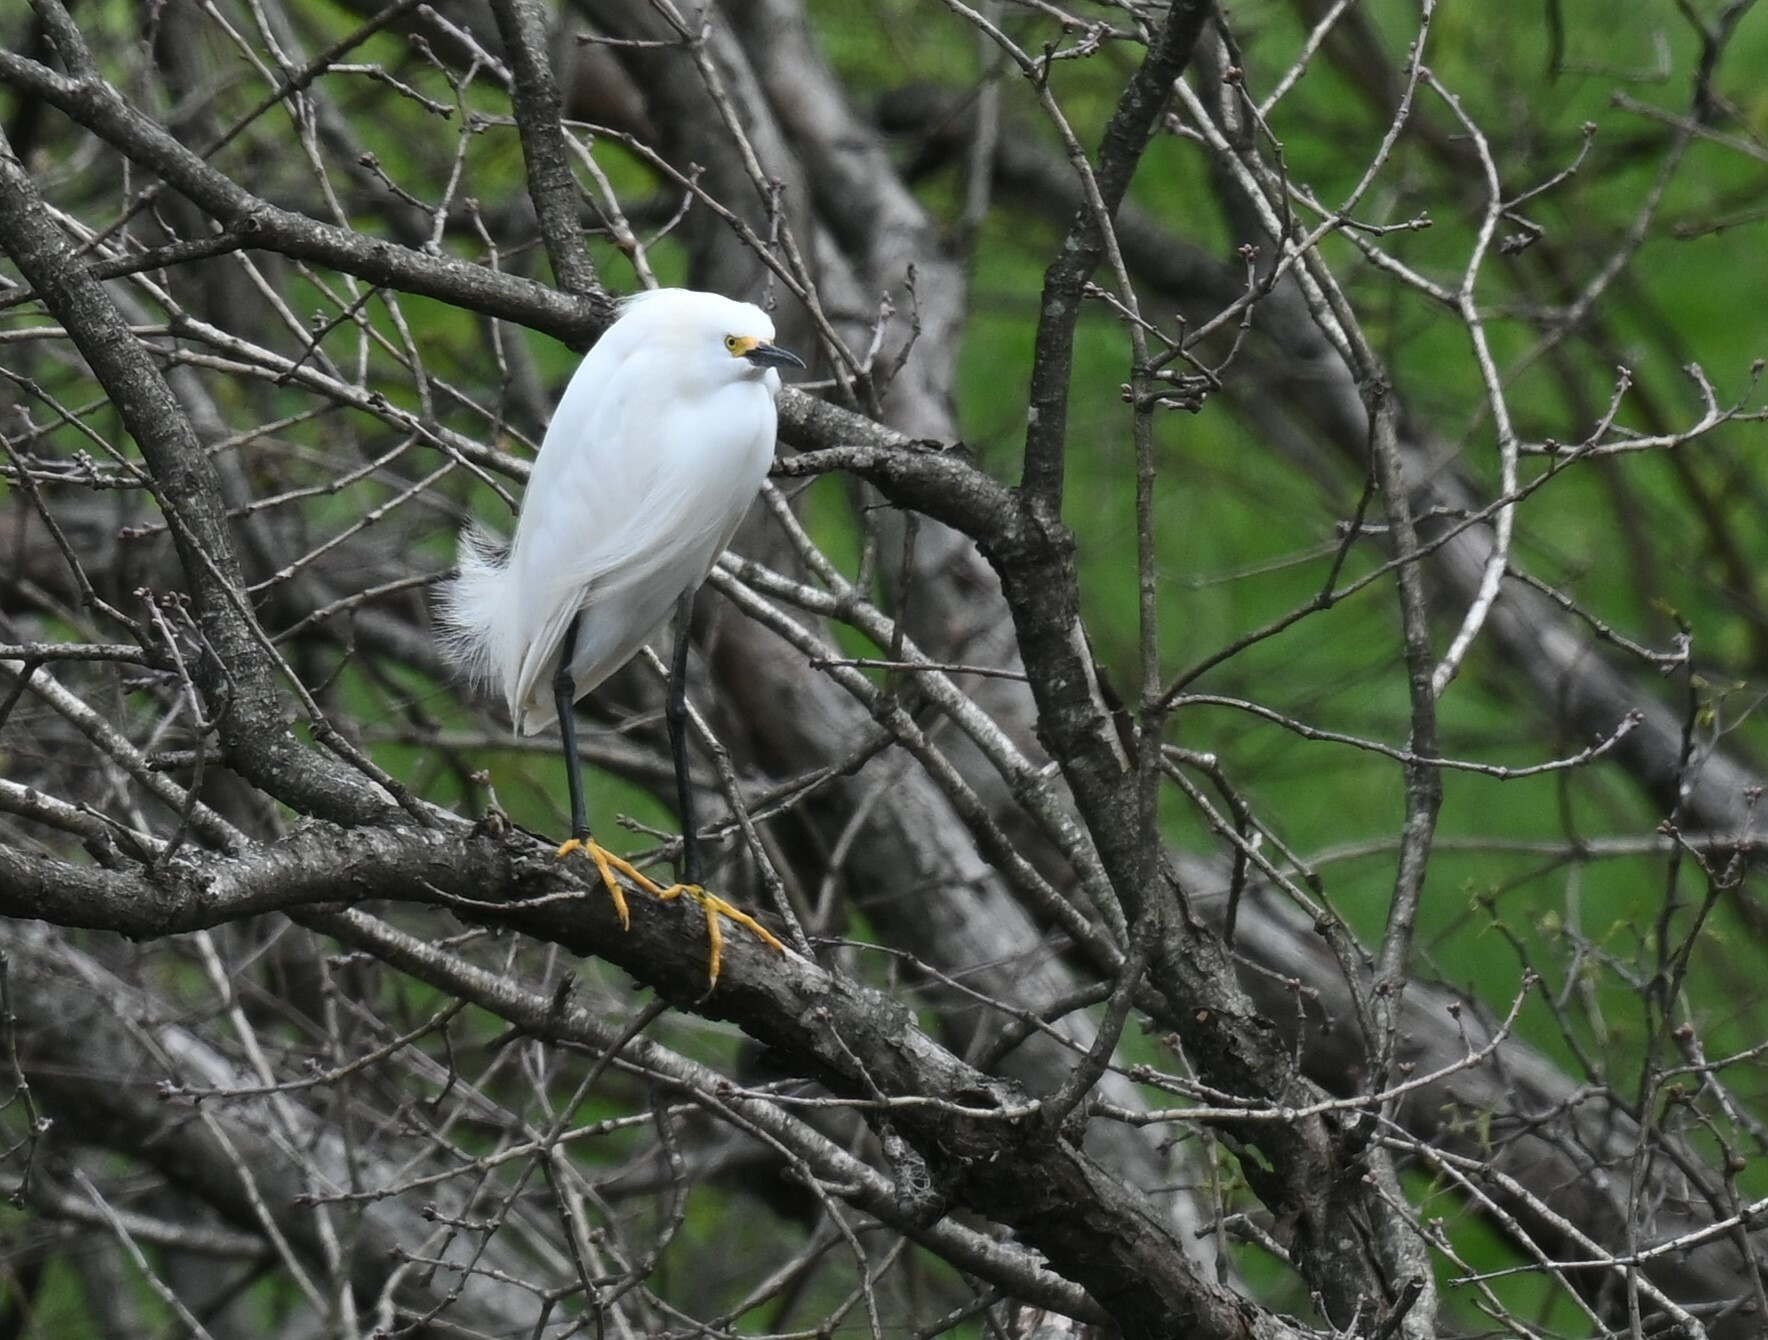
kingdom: Animalia
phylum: Chordata
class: Aves
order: Pelecaniformes
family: Ardeidae
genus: Egretta
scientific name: Egretta thula
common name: Snowy egret
